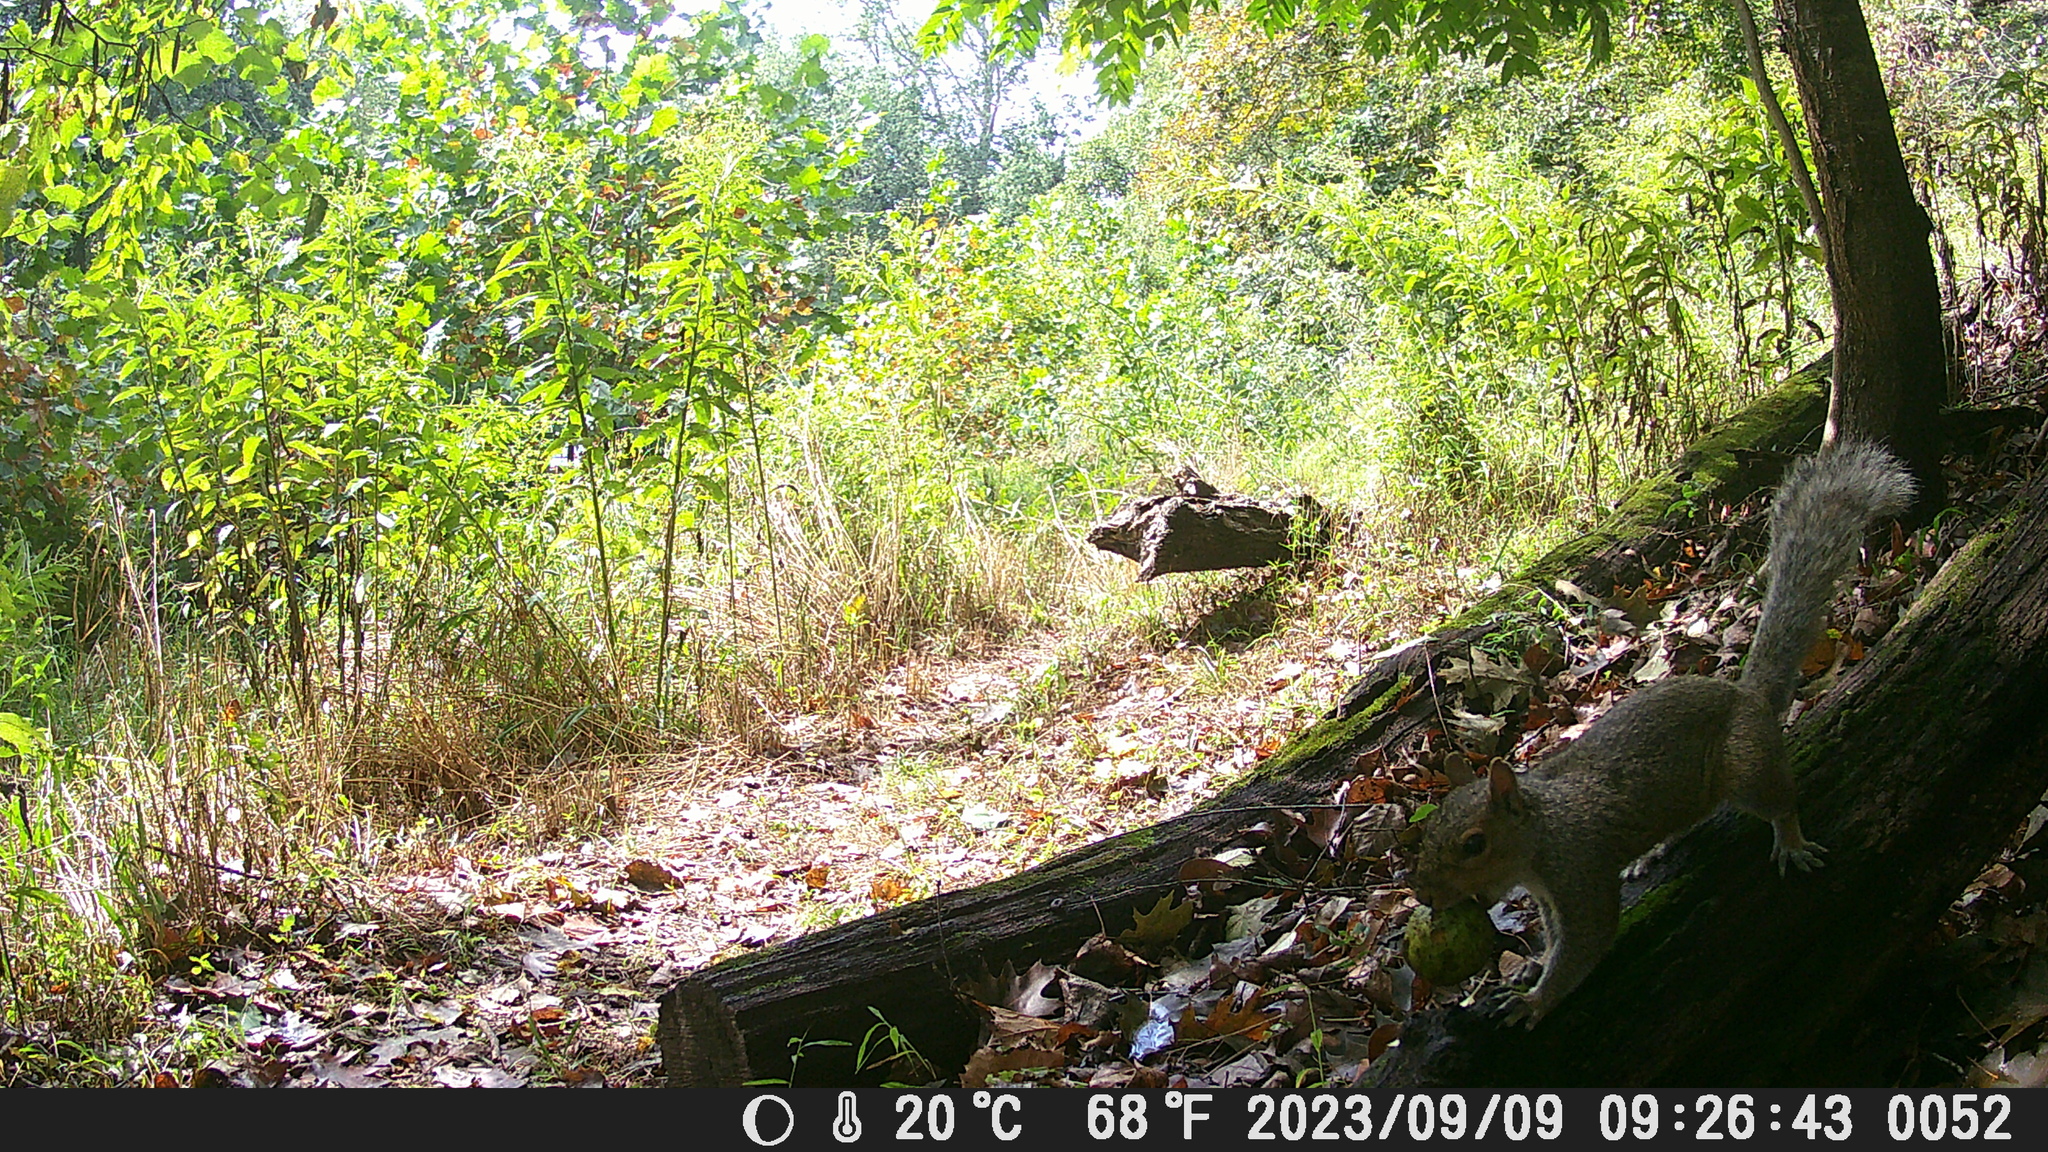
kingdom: Animalia
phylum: Chordata
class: Mammalia
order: Rodentia
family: Sciuridae
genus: Sciurus
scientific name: Sciurus carolinensis
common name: Eastern gray squirrel
